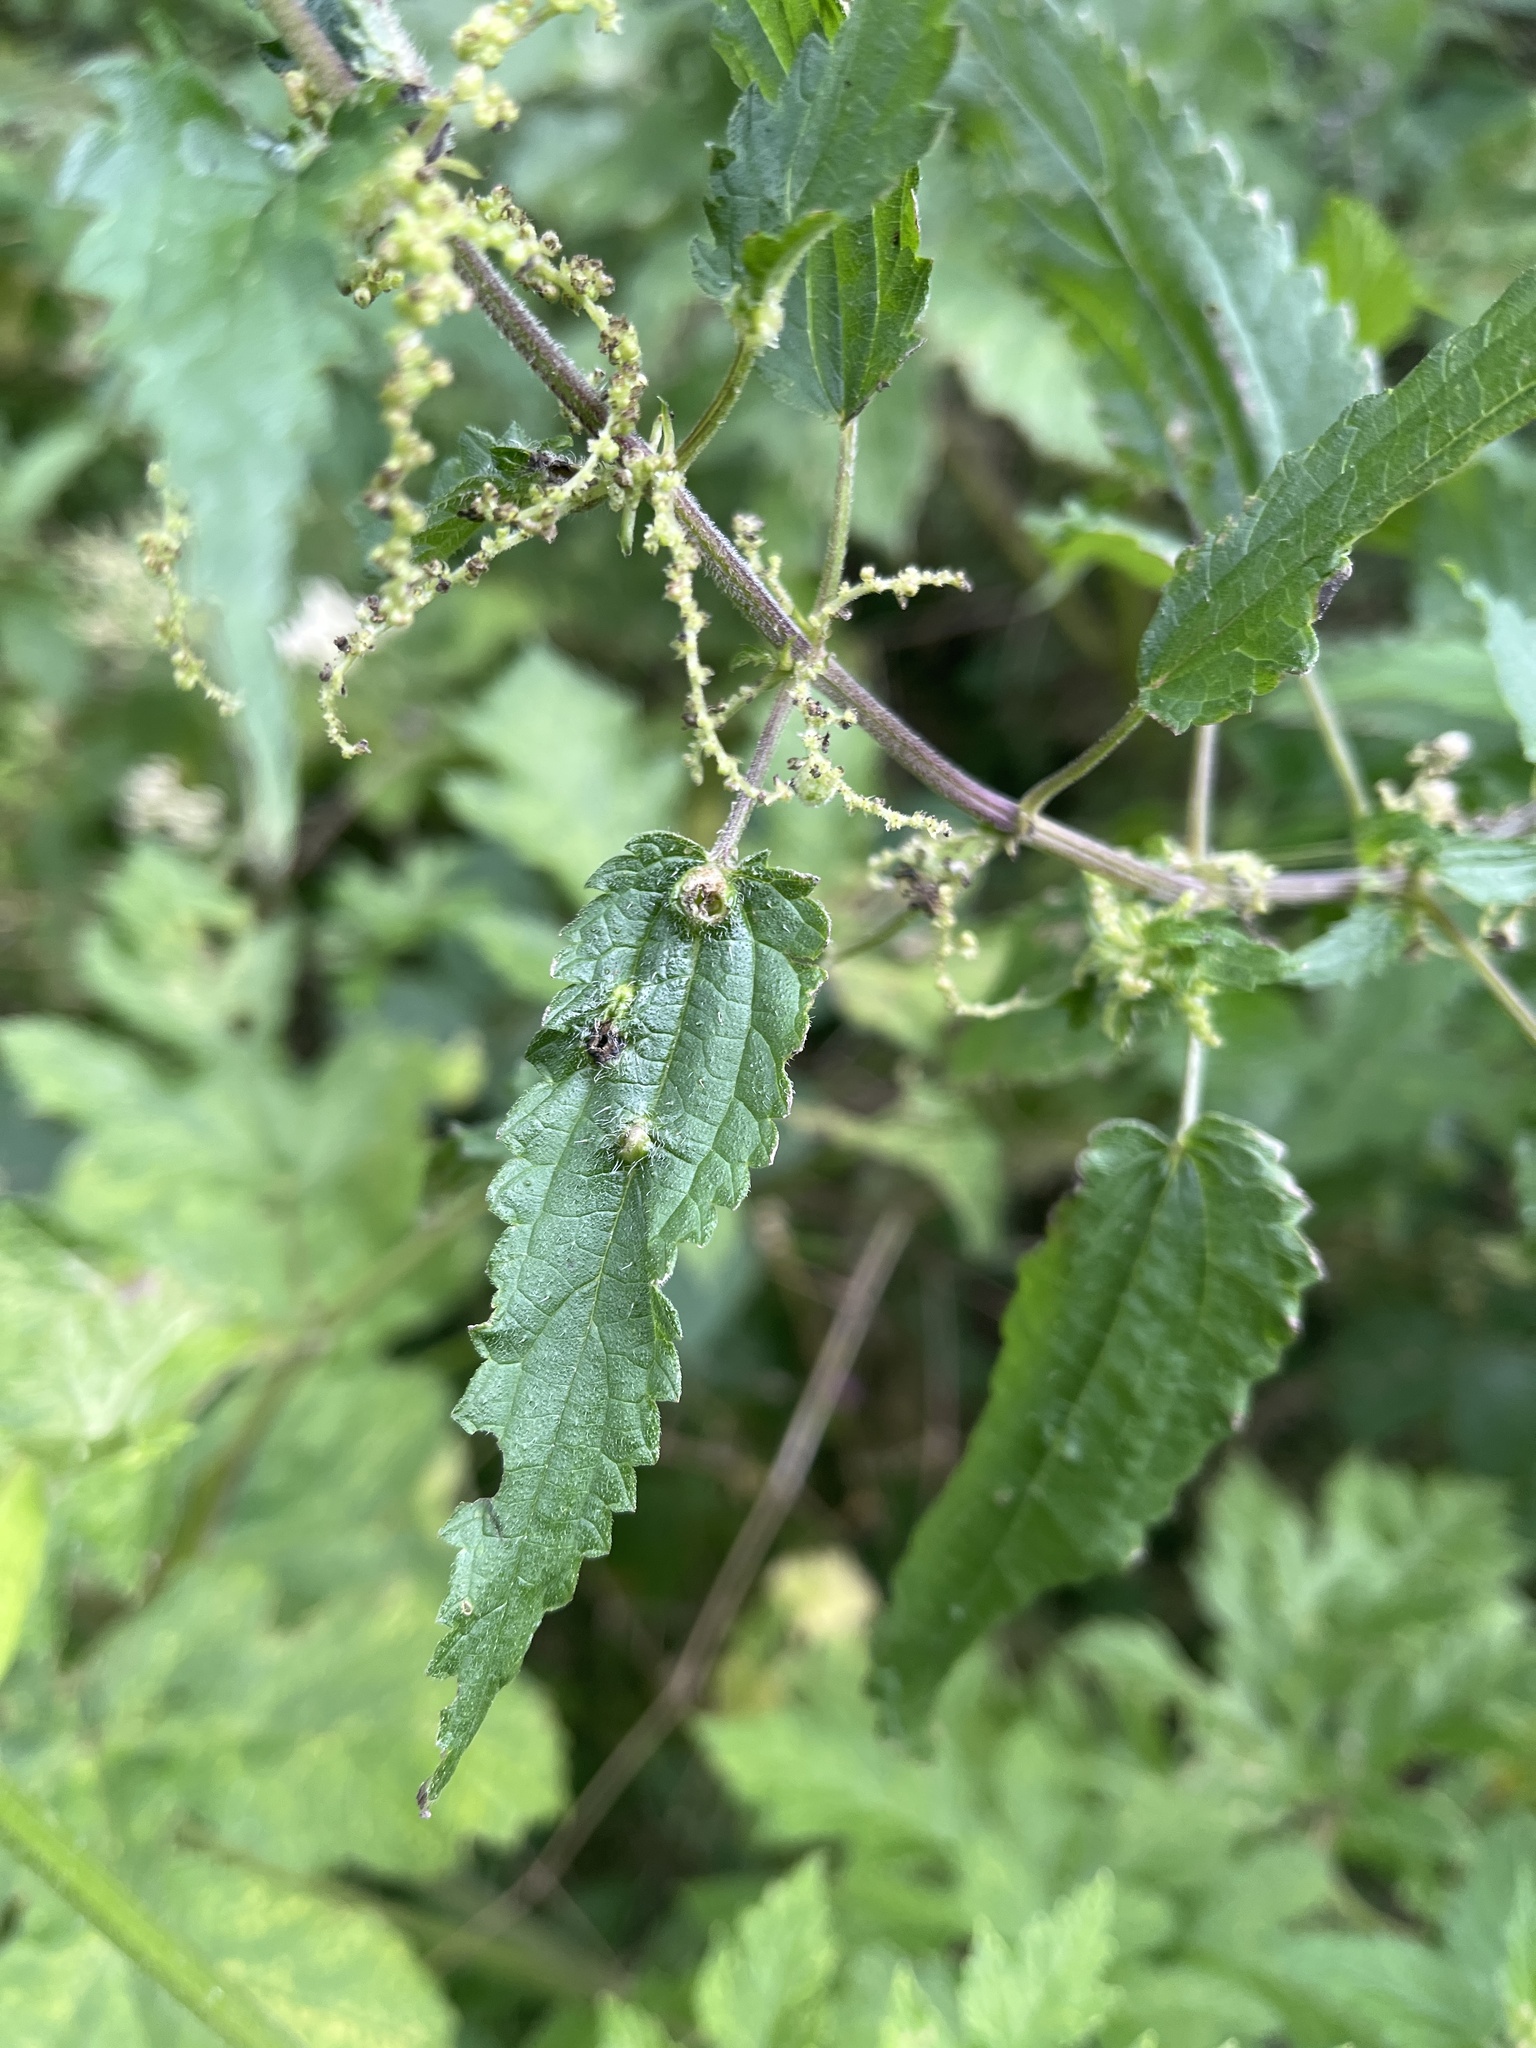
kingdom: Animalia
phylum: Arthropoda
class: Insecta
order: Diptera
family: Cecidomyiidae
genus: Dasineura
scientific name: Dasineura urticae
